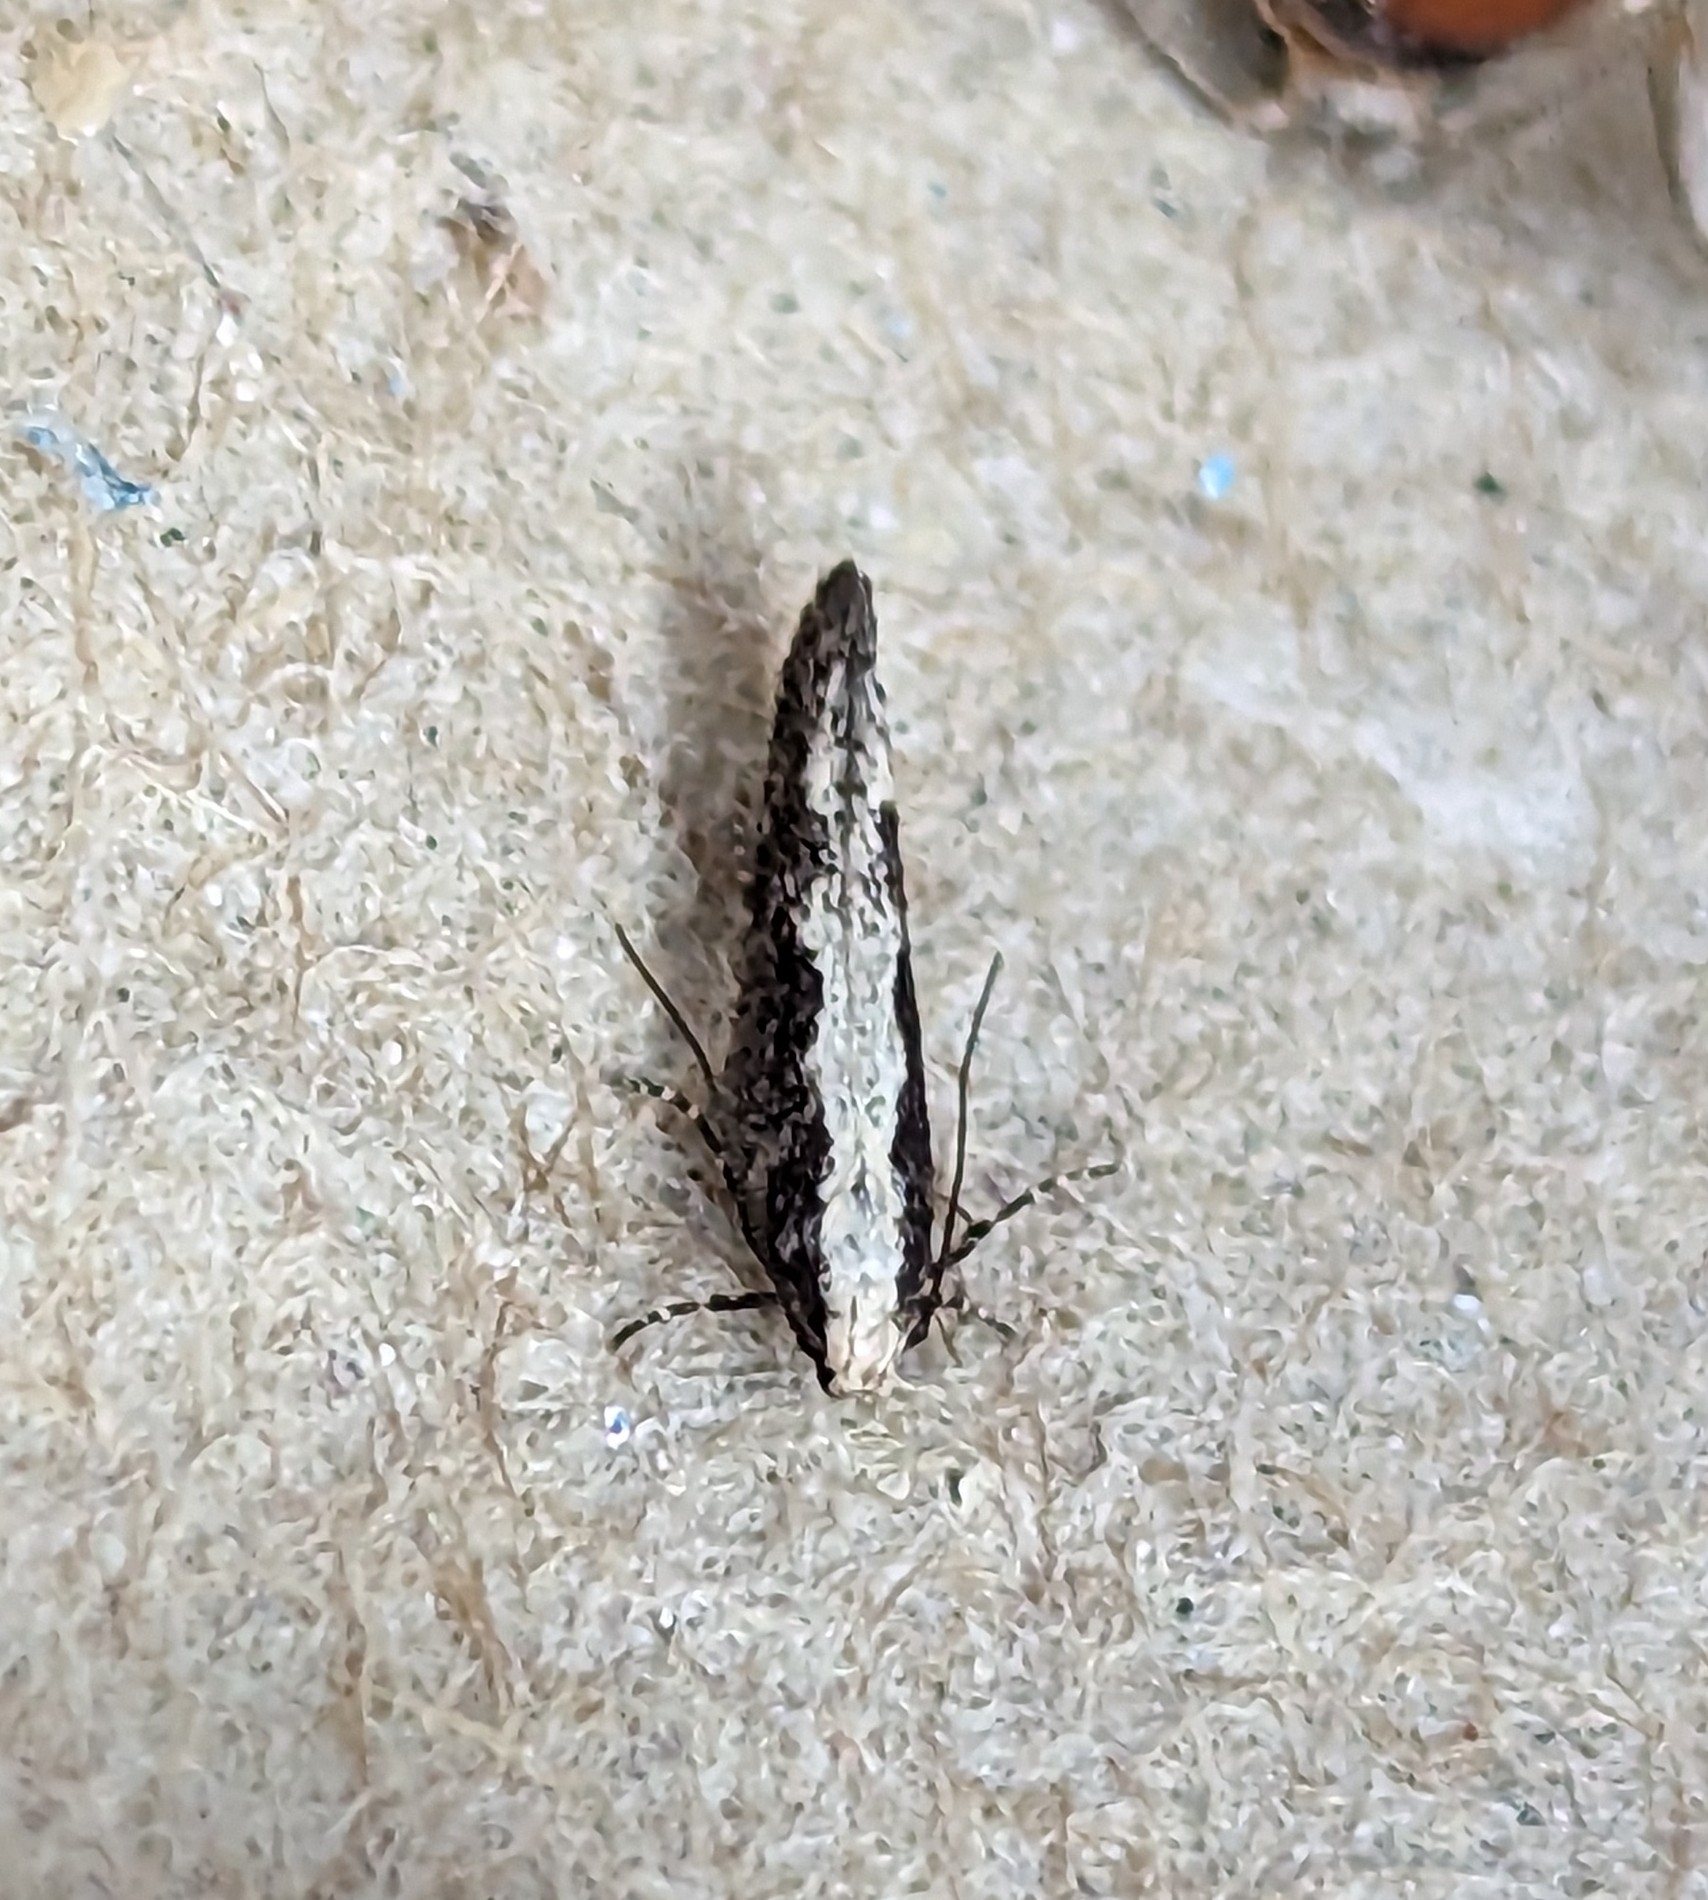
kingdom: Animalia
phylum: Arthropoda
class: Insecta
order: Lepidoptera
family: Gelechiidae
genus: Agnippe
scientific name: Agnippe prunifoliella
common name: Skunk twirler
